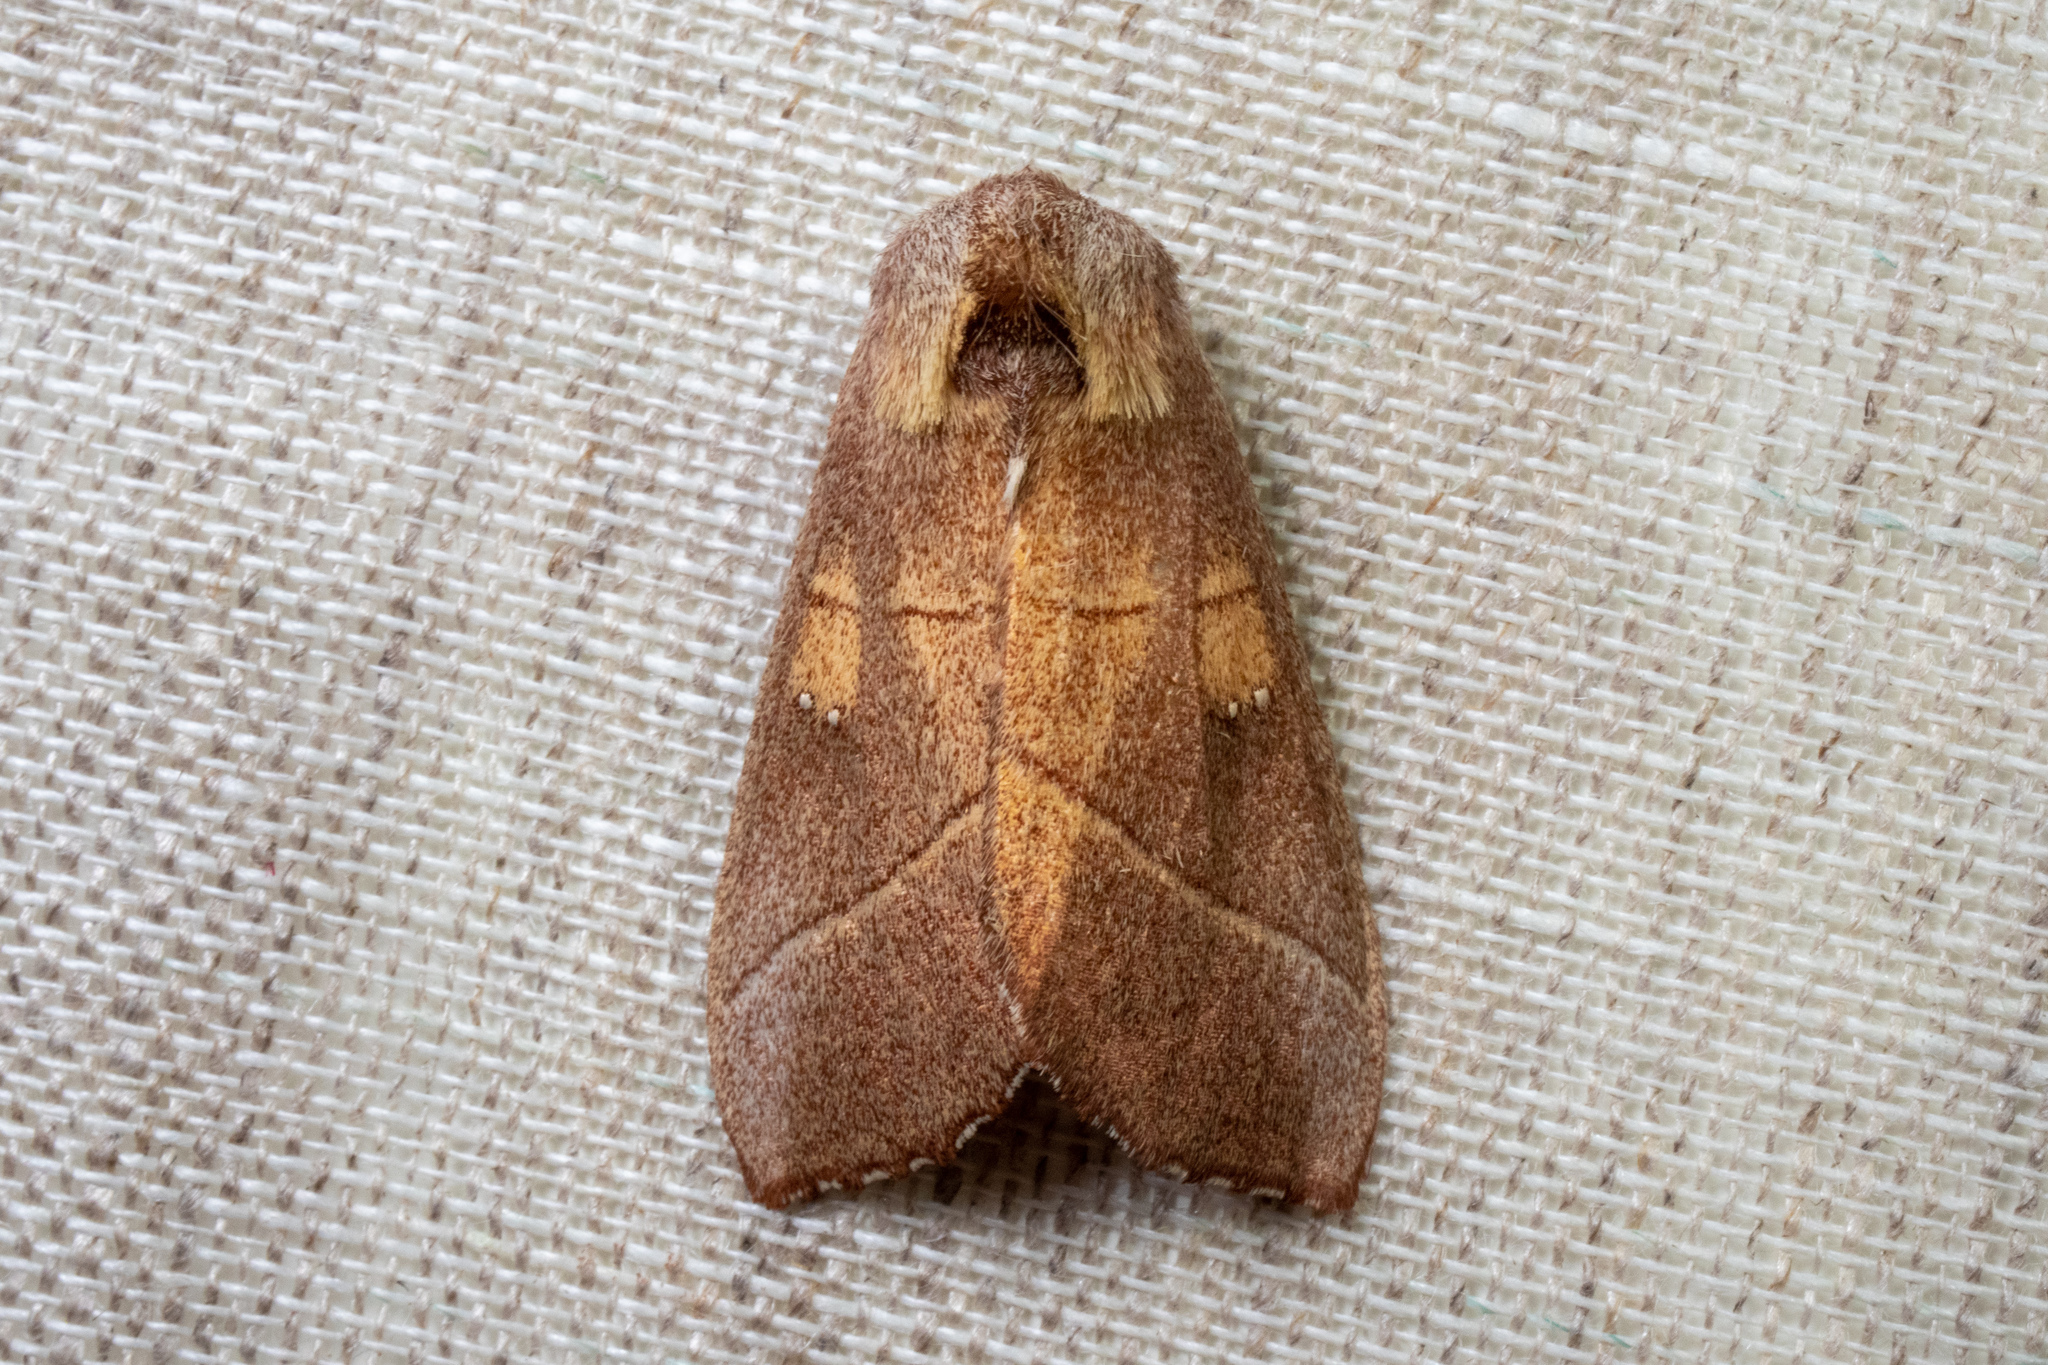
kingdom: Animalia
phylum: Arthropoda
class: Insecta
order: Lepidoptera
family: Notodontidae
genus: Nadata
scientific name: Nadata gibbosa
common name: White-dotted prominent
